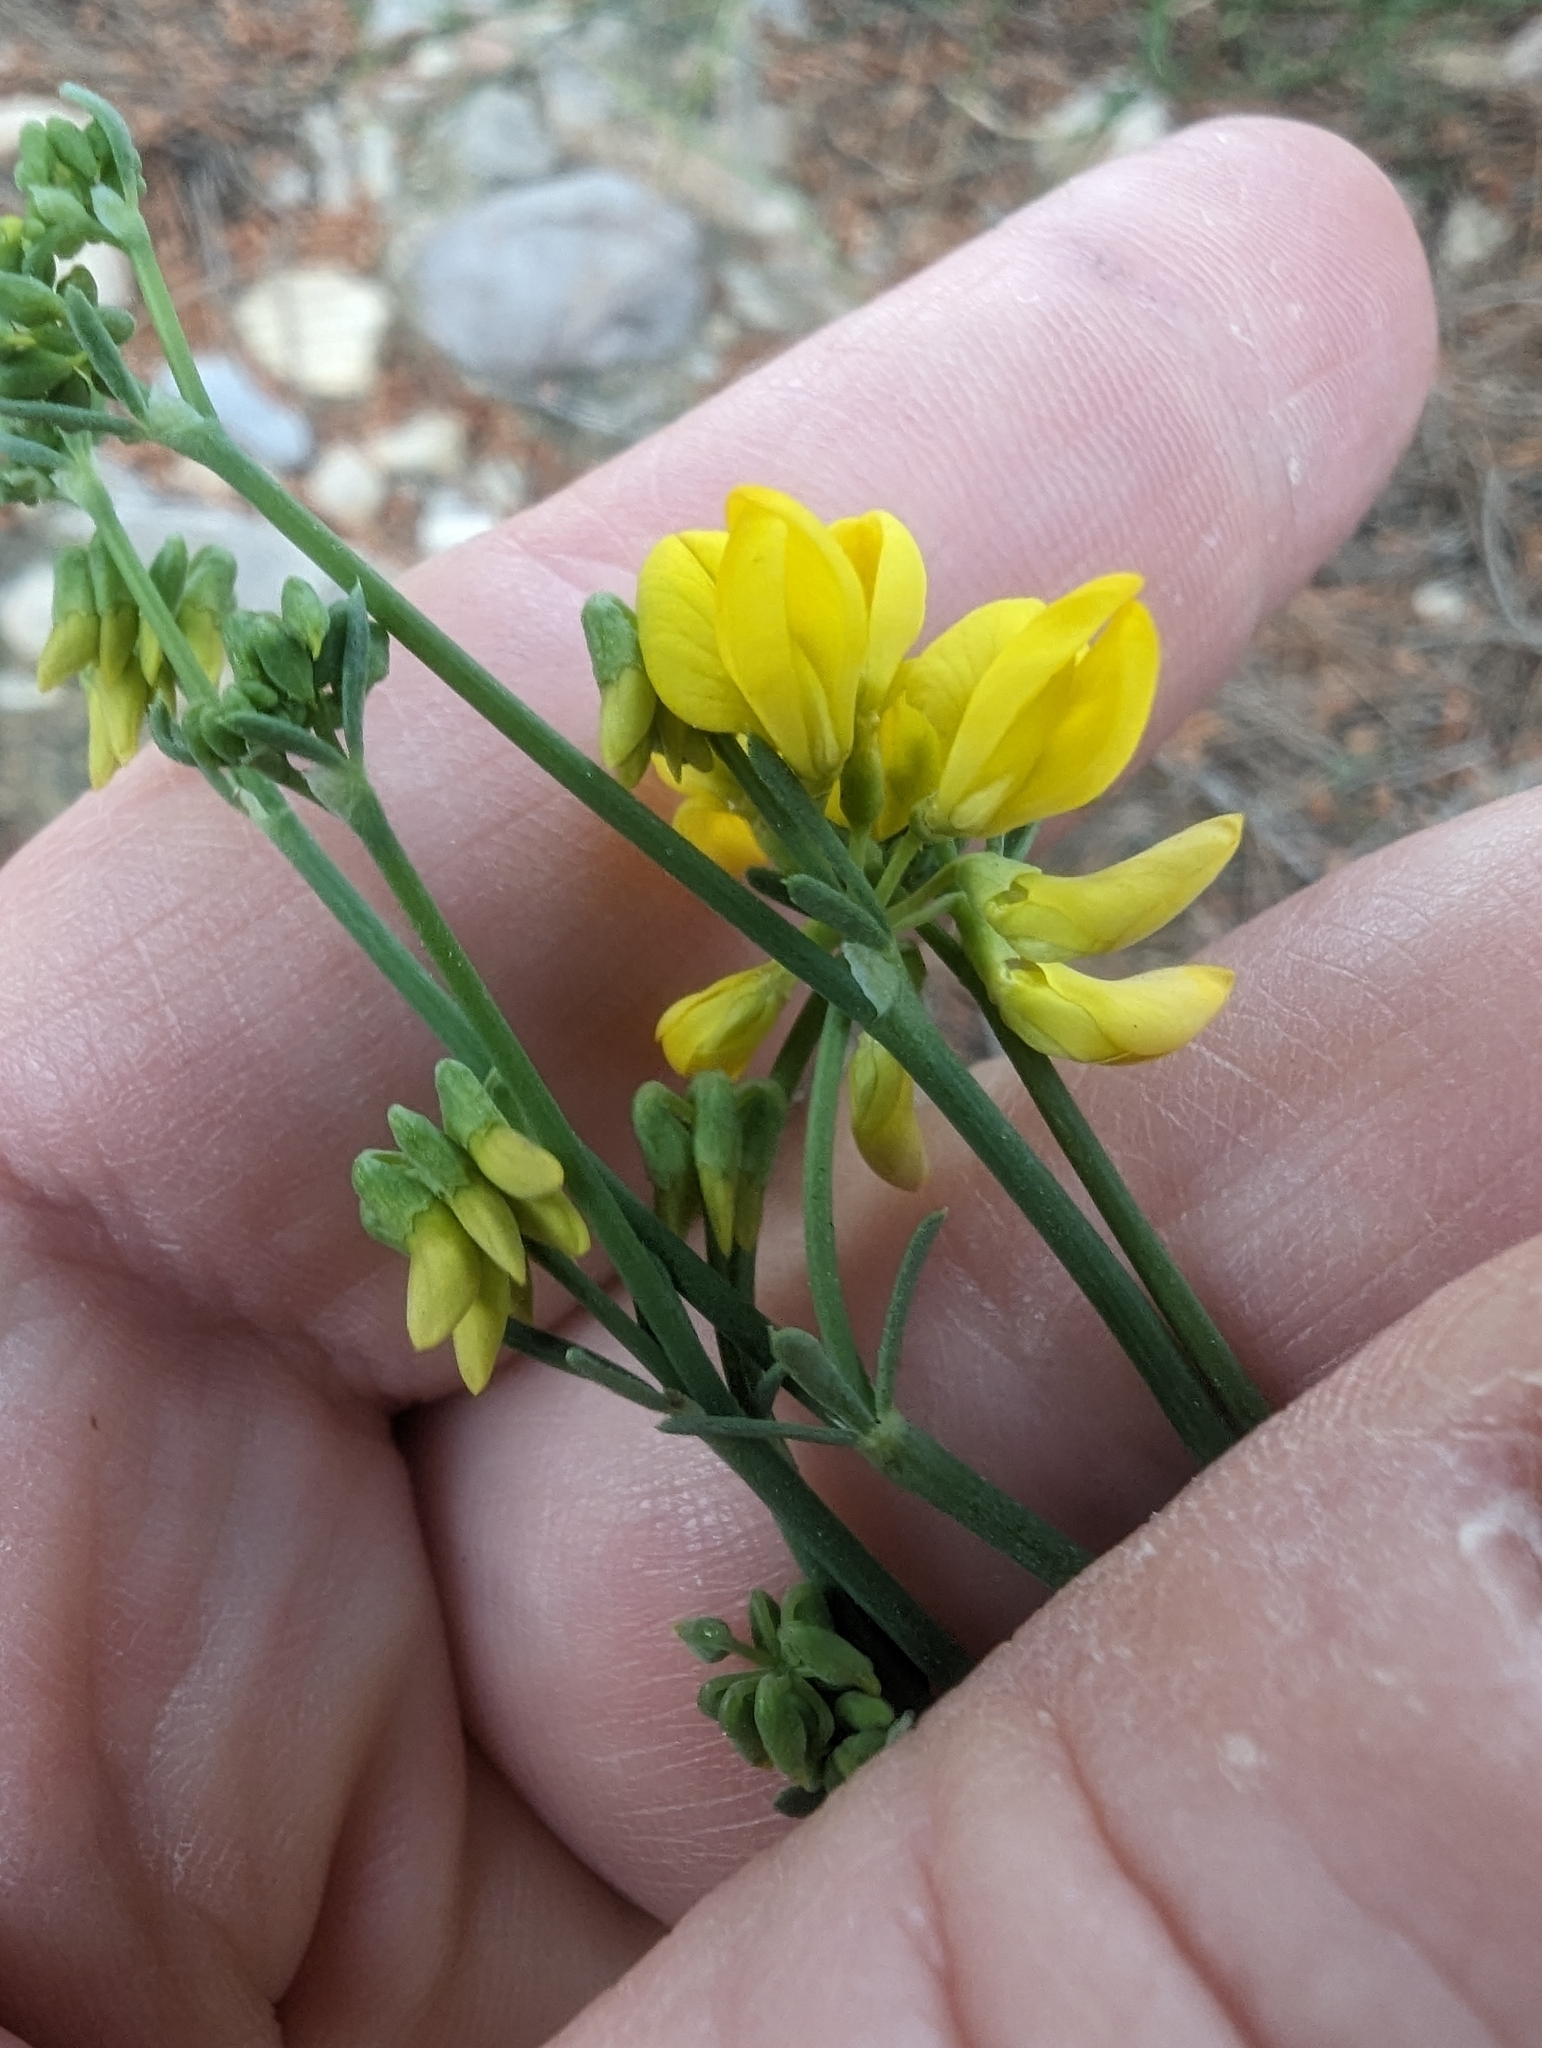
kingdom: Plantae
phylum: Tracheophyta
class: Magnoliopsida
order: Fabales
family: Fabaceae
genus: Coronilla
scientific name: Coronilla juncea
